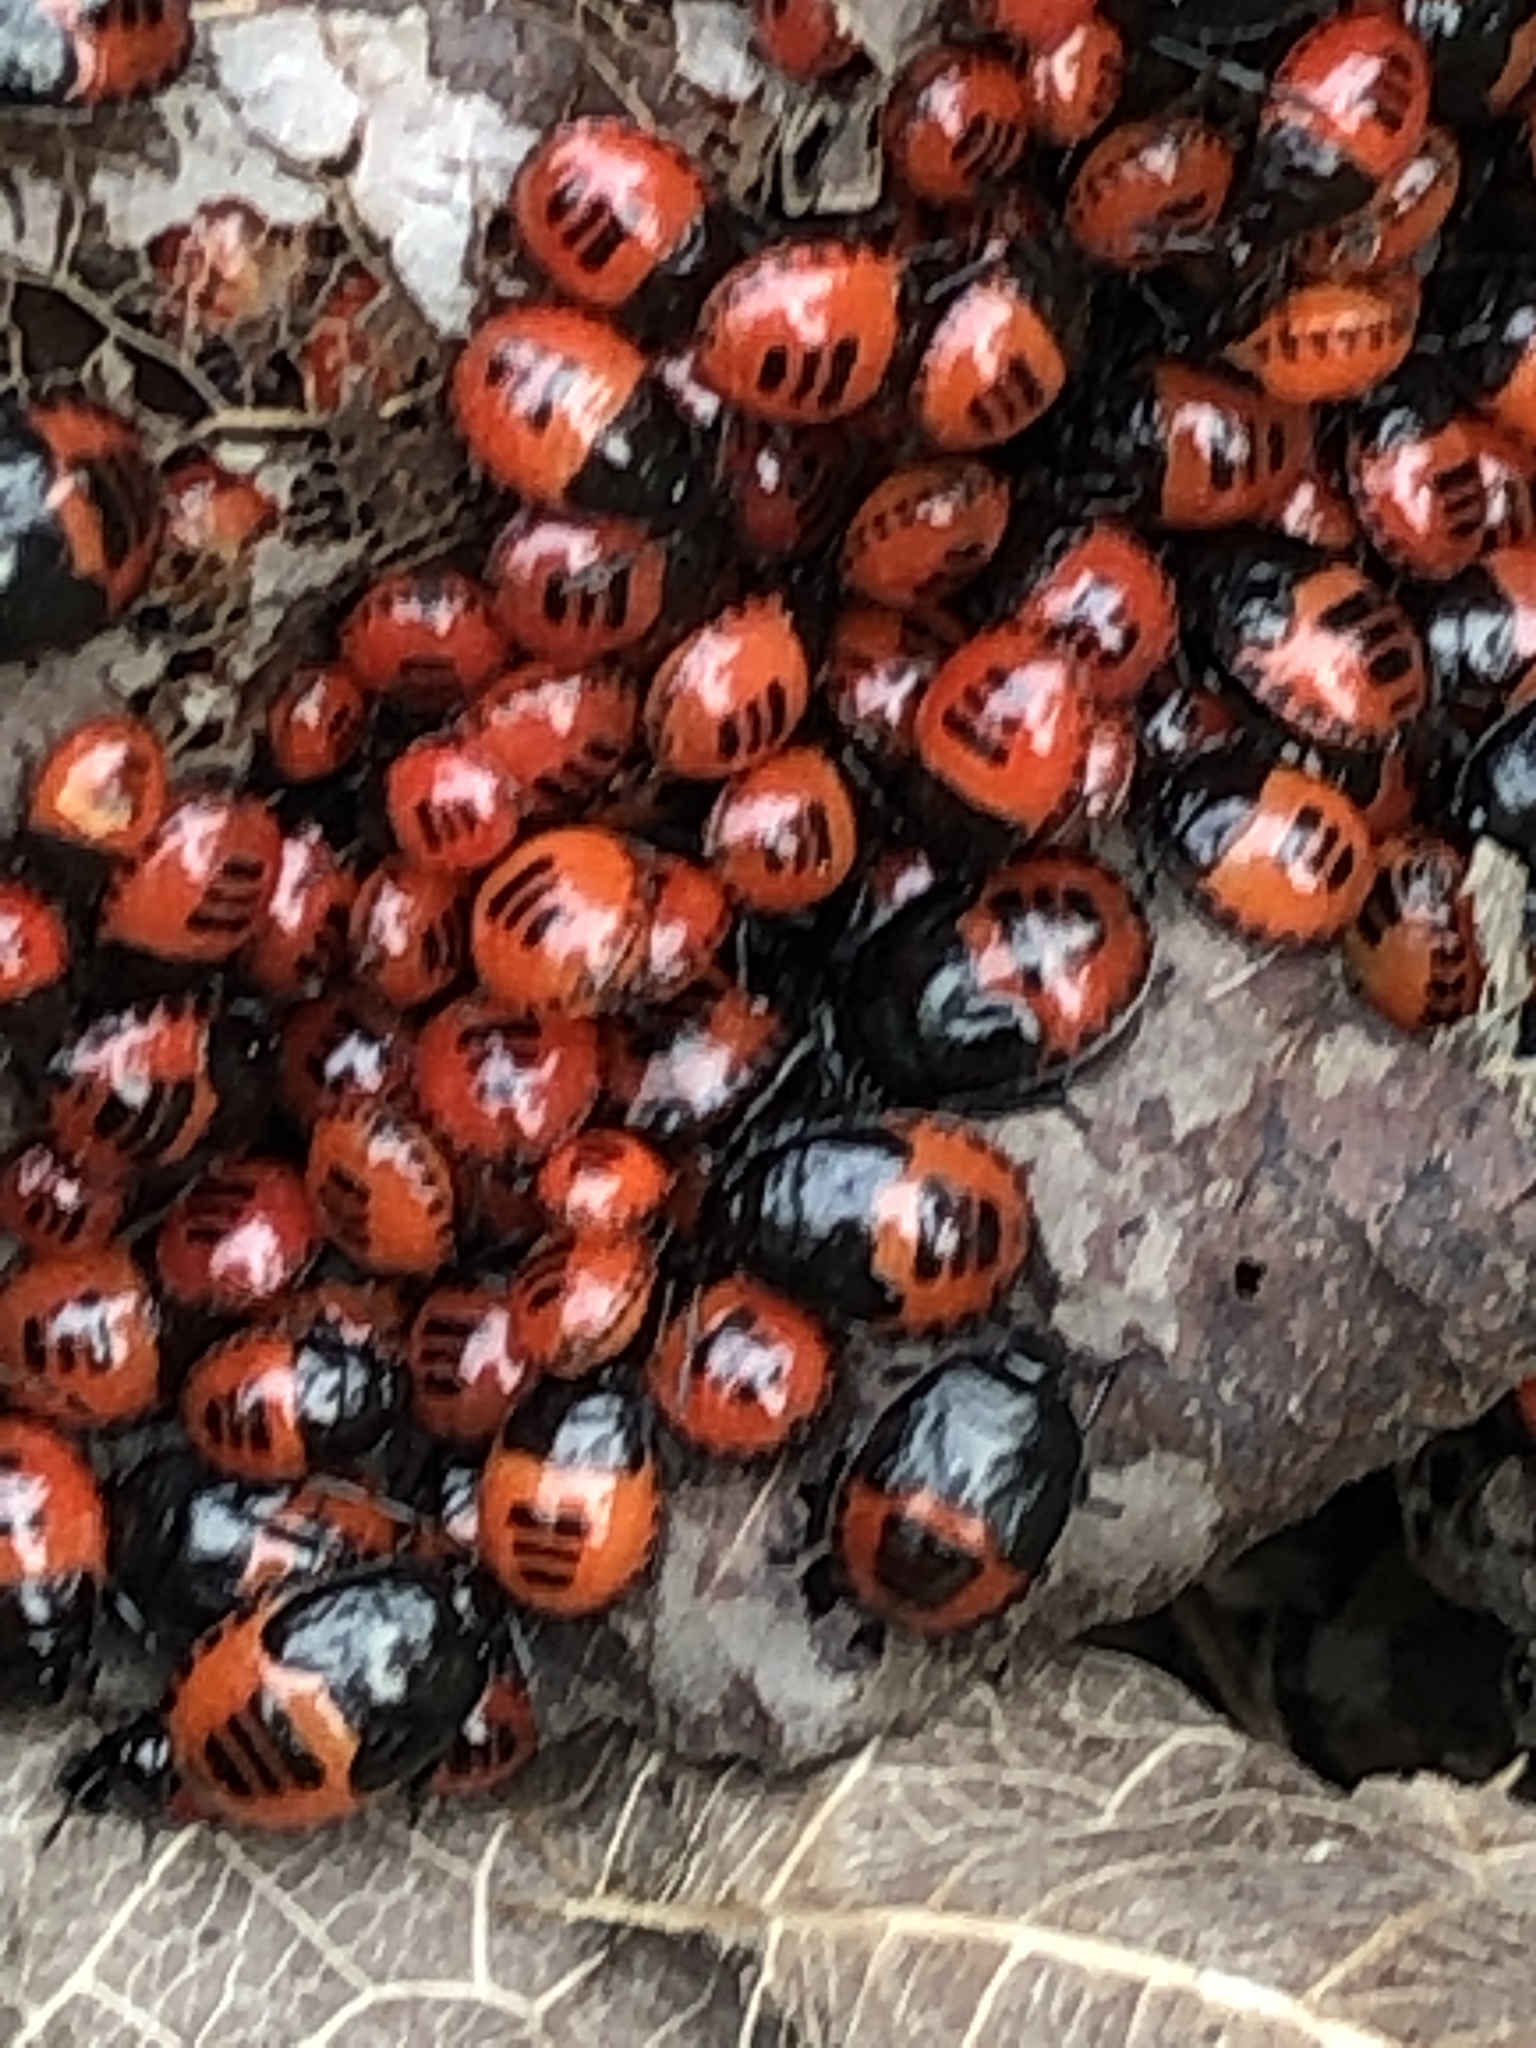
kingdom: Animalia
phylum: Arthropoda
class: Insecta
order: Hemiptera
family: Cydnidae
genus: Sehirus
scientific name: Sehirus cinctus
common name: White-margined burrower bug
